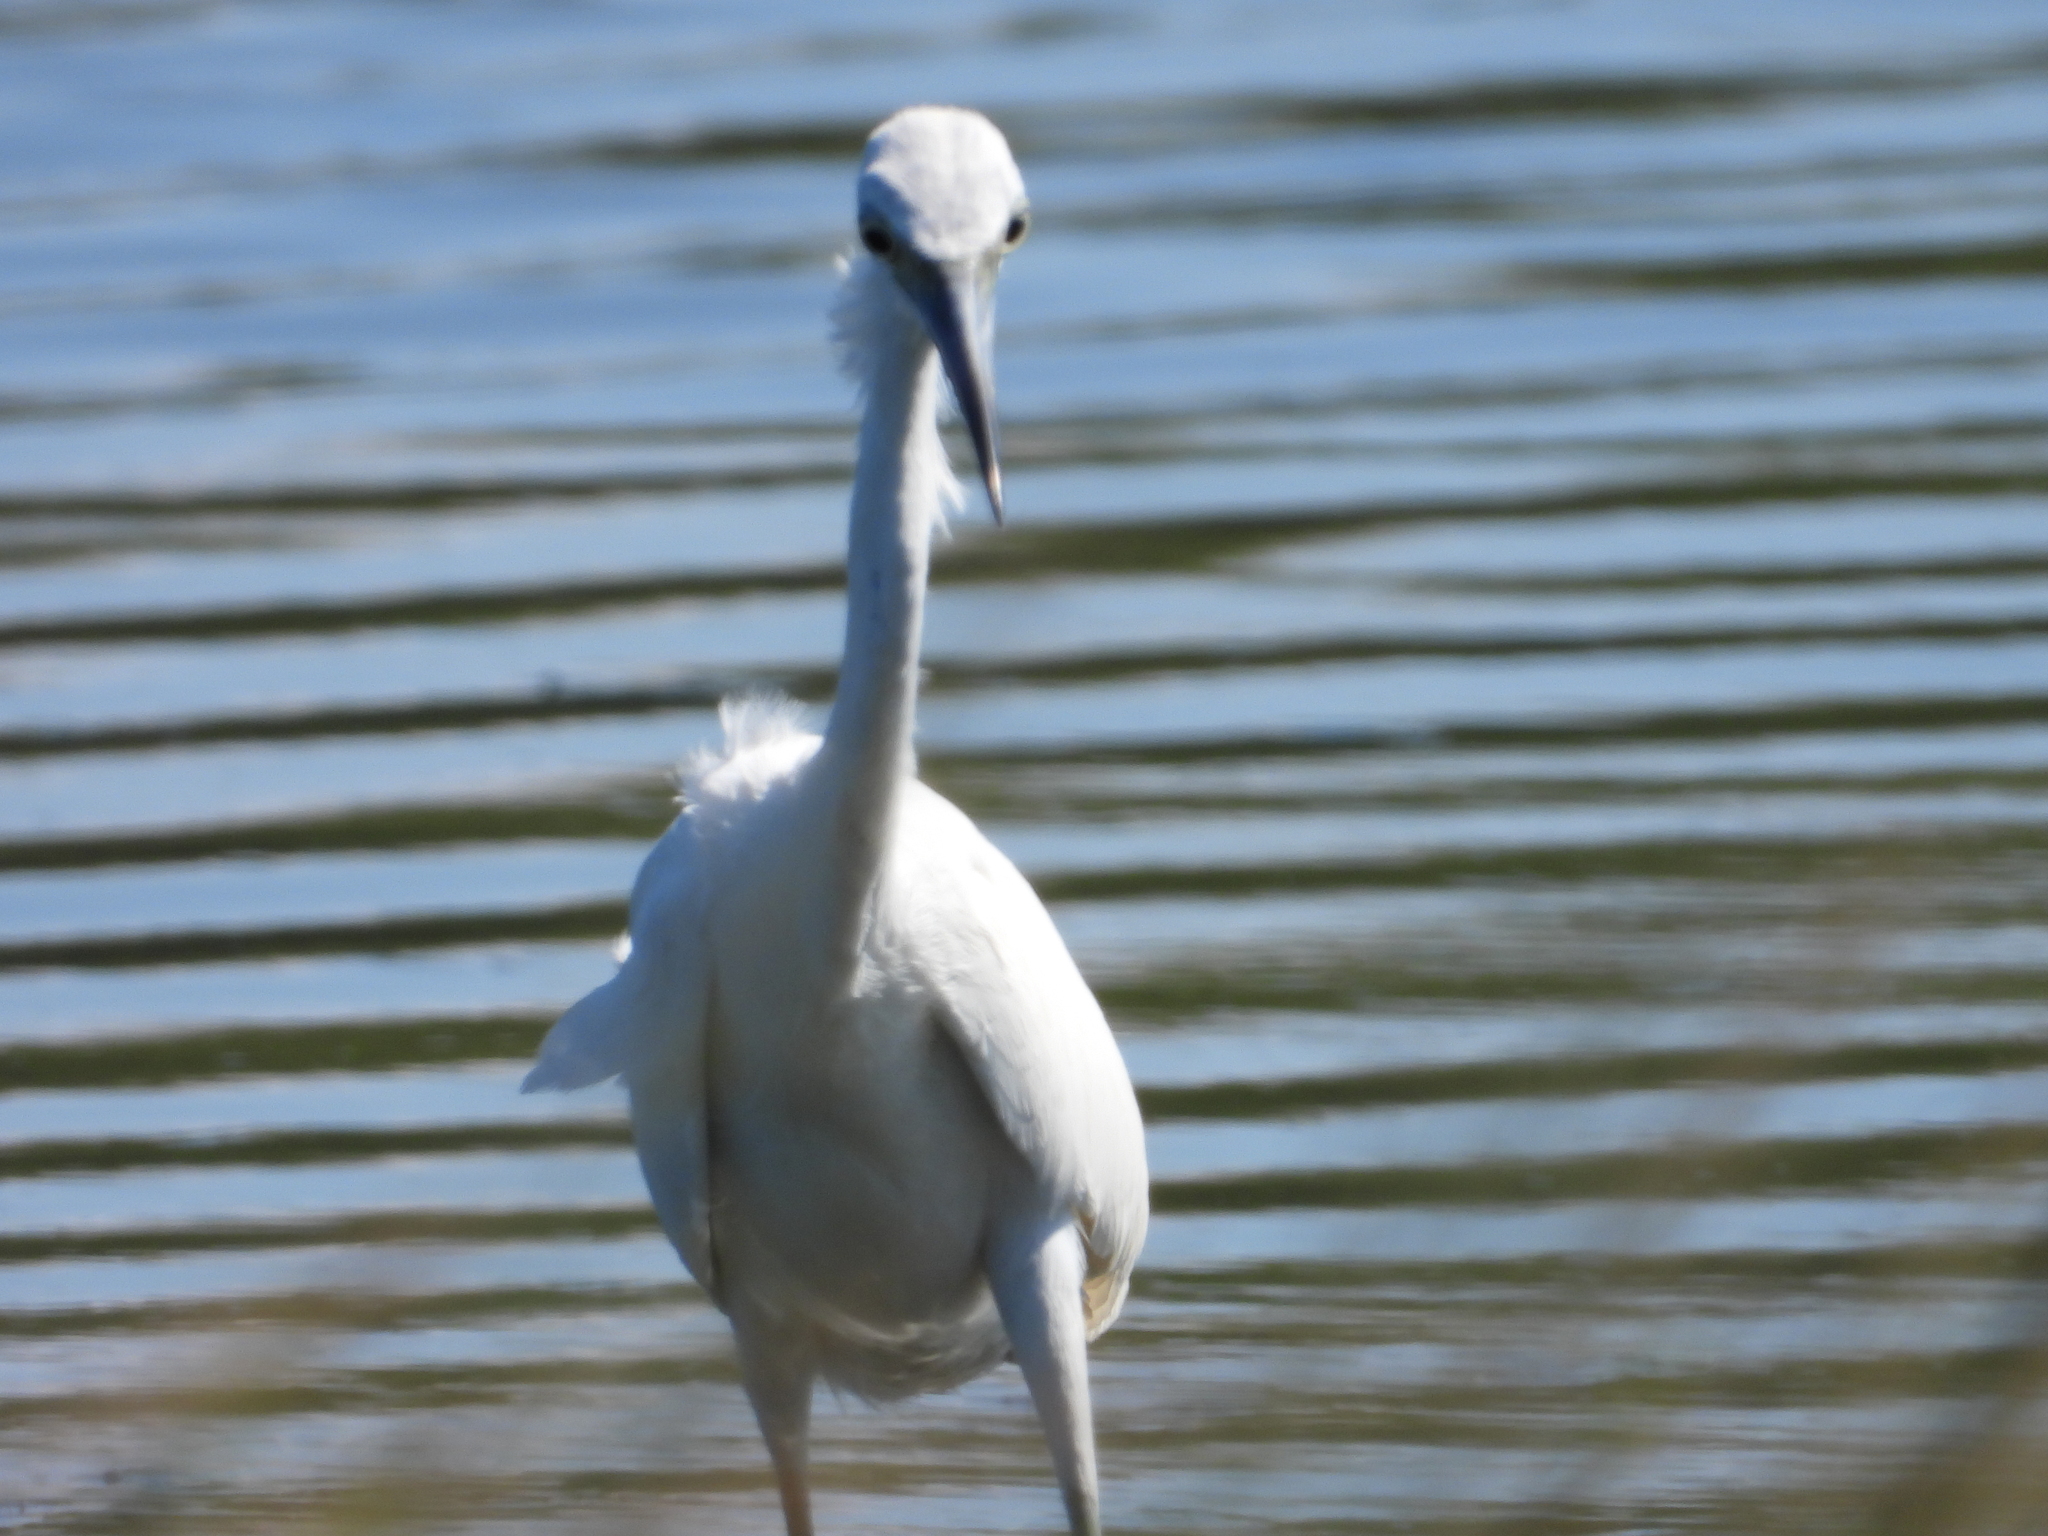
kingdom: Animalia
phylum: Chordata
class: Aves
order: Pelecaniformes
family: Ardeidae
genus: Egretta
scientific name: Egretta caerulea
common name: Little blue heron
